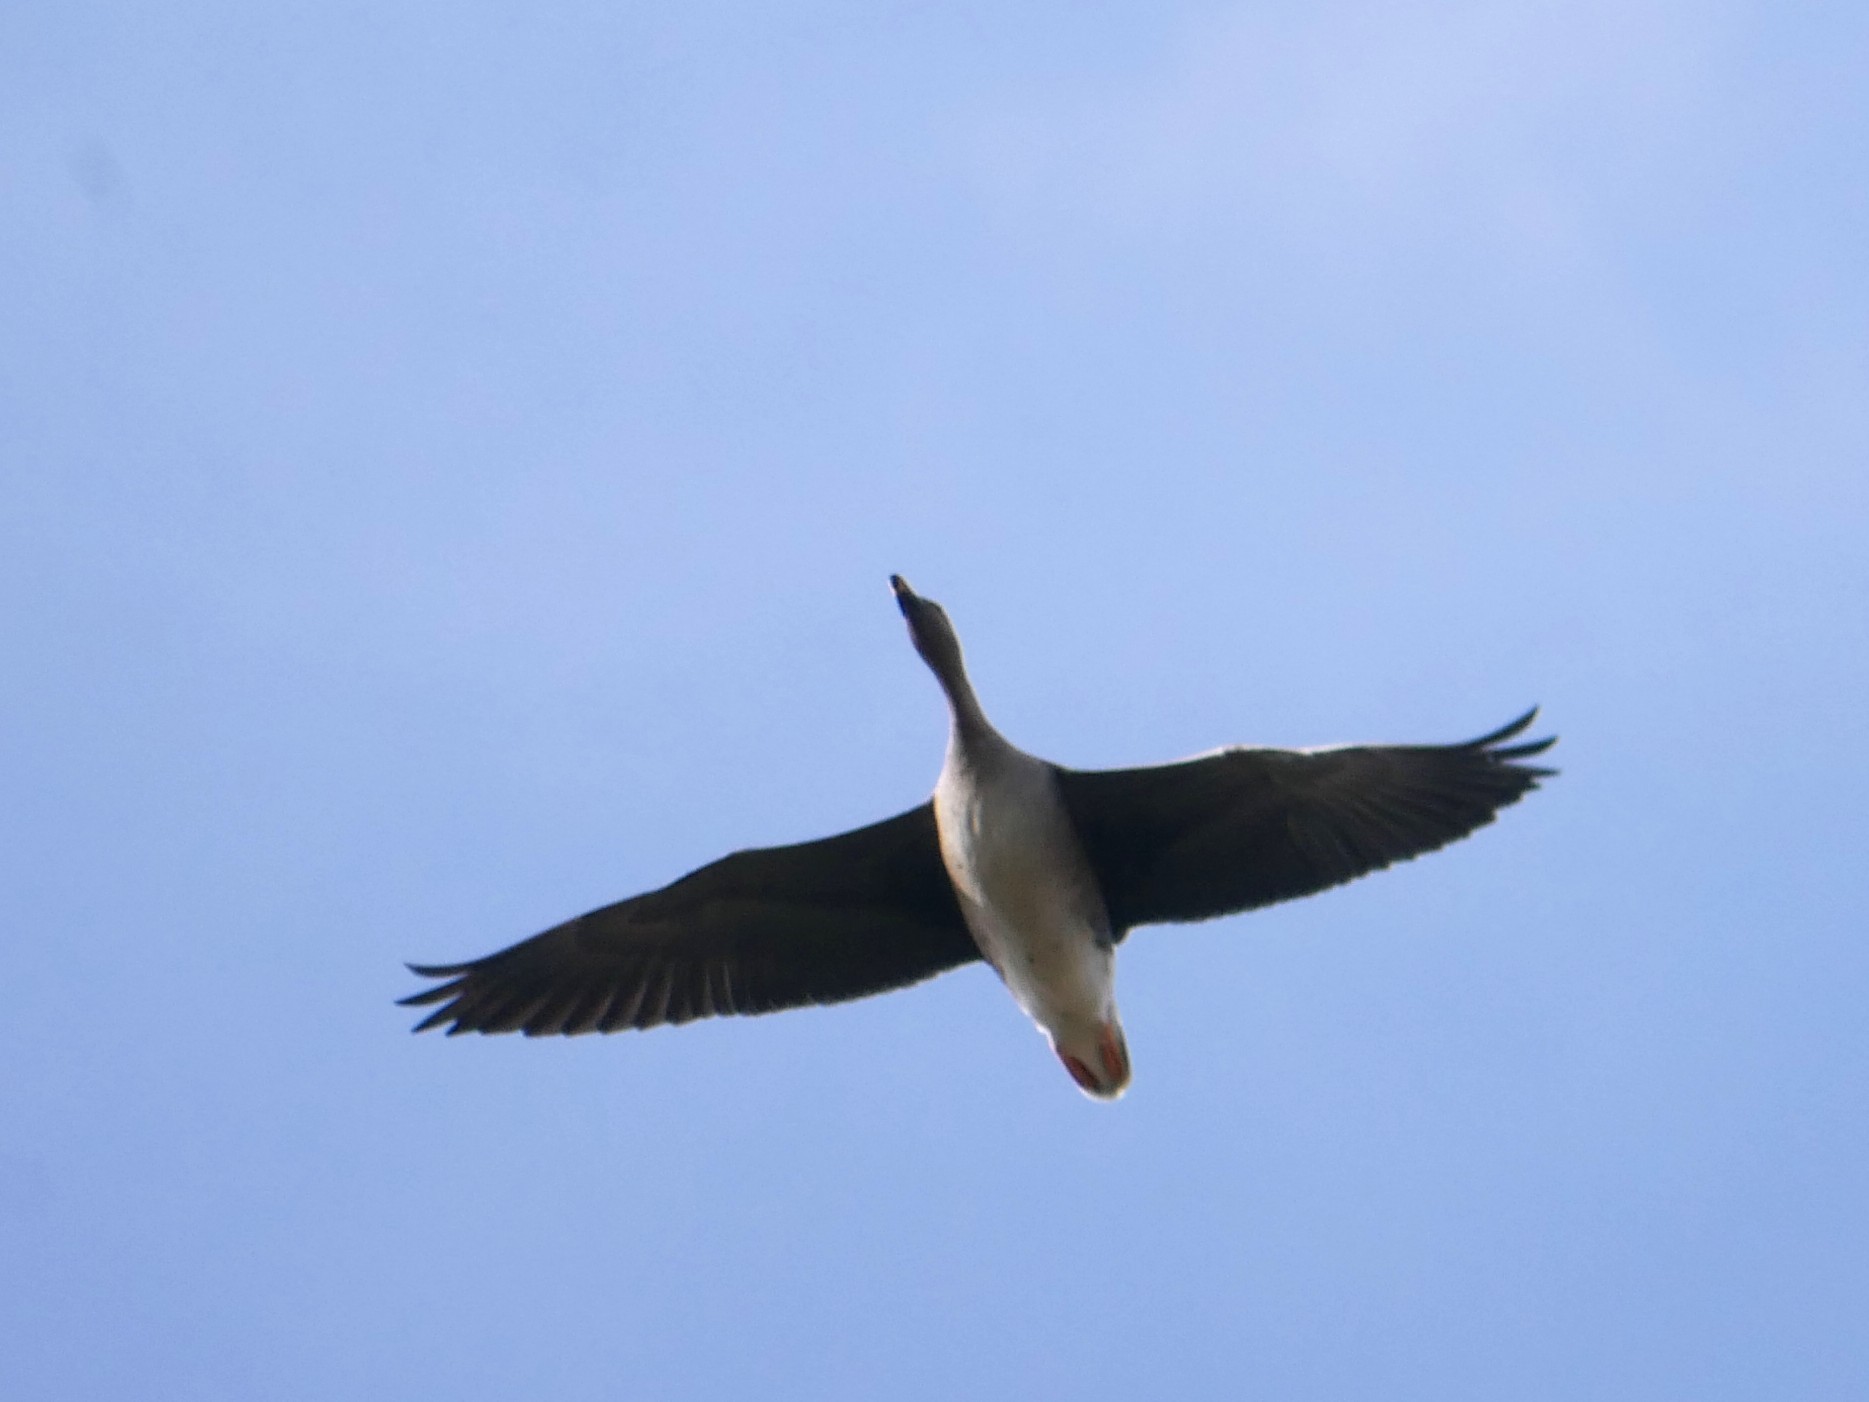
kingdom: Animalia
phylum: Chordata
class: Aves
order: Anseriformes
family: Anatidae
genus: Anser
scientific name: Anser serrirostris
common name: Tundra bean goose
